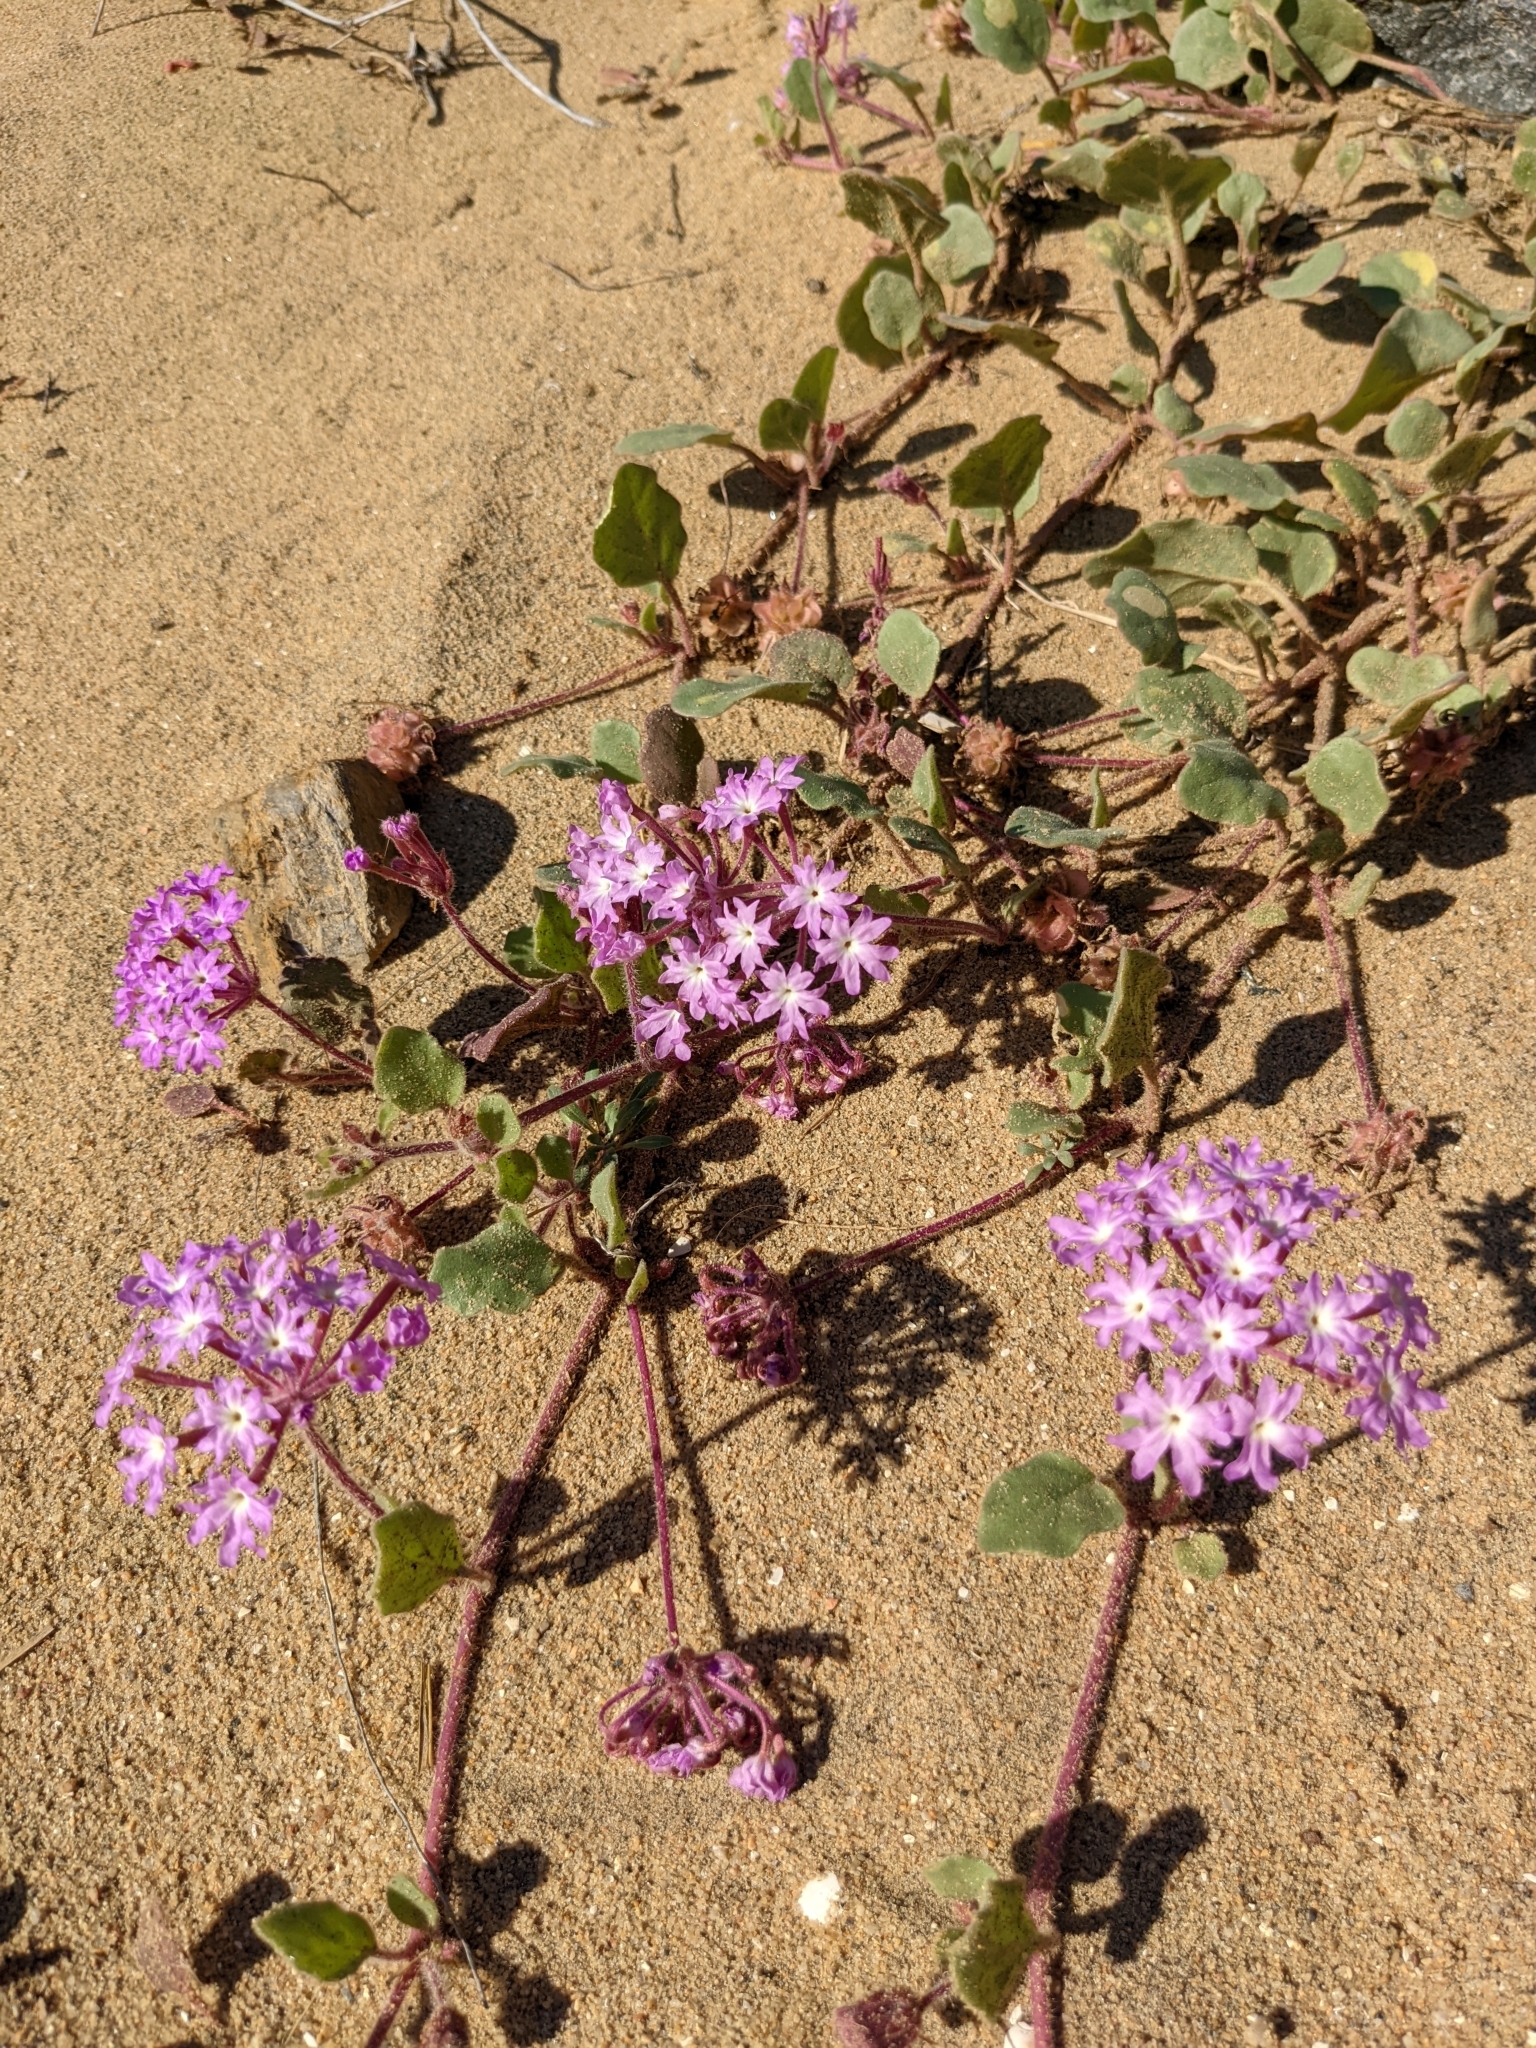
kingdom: Plantae
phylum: Tracheophyta
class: Magnoliopsida
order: Caryophyllales
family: Nyctaginaceae
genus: Abronia
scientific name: Abronia umbellata
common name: Sand-verbena
